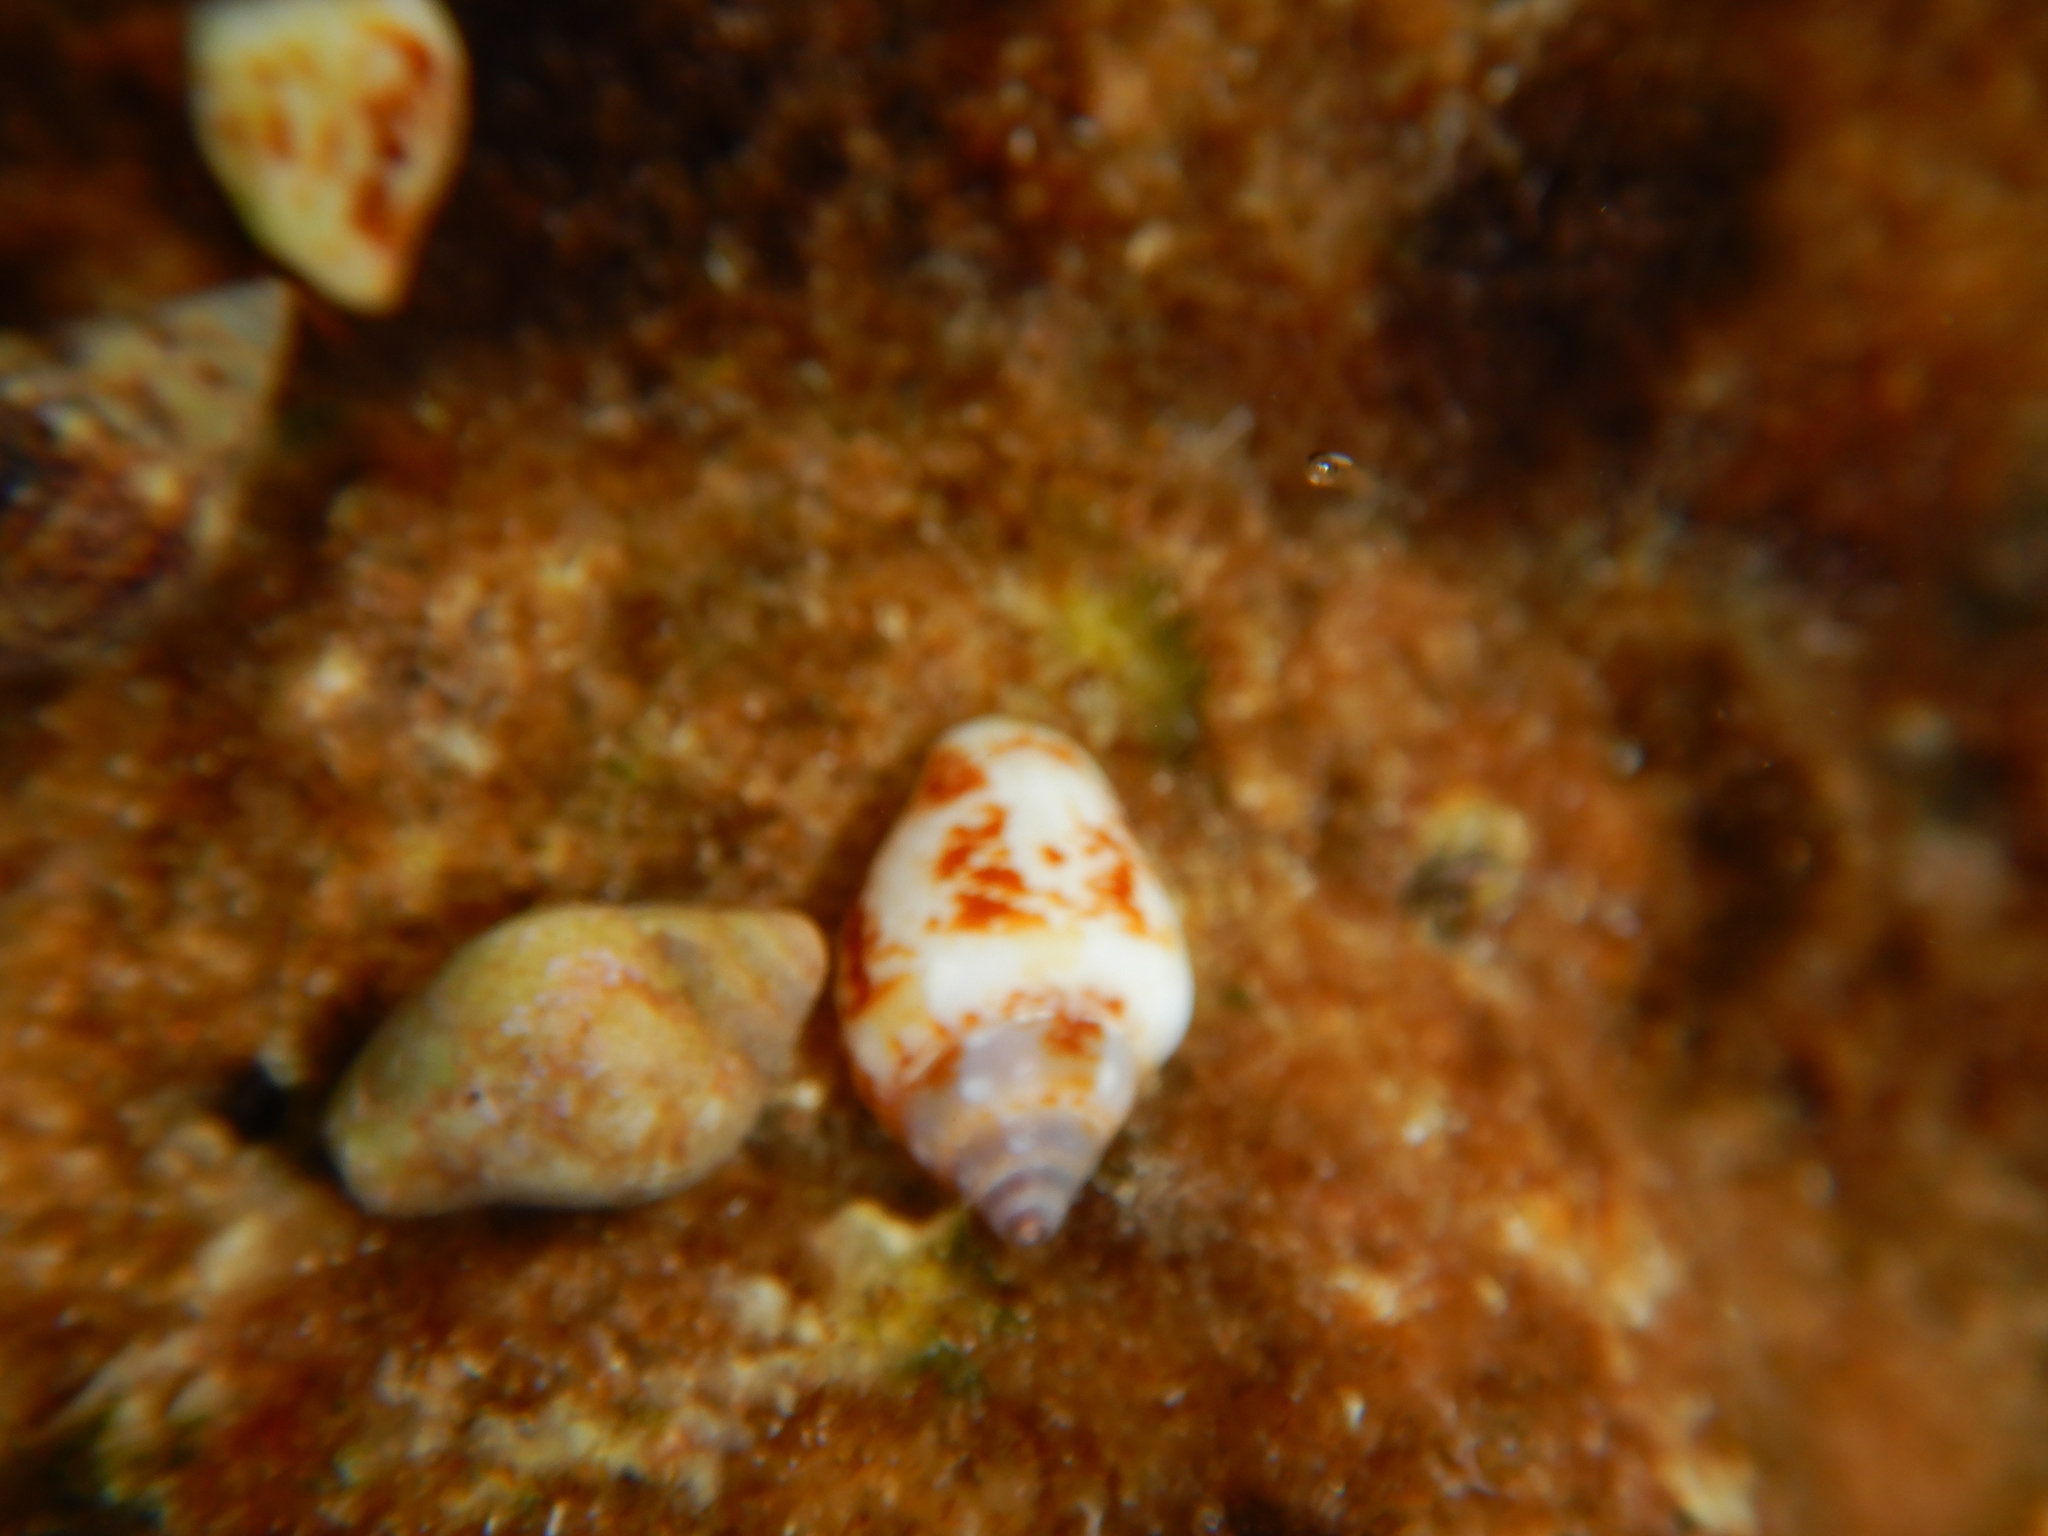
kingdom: Animalia
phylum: Mollusca
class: Gastropoda
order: Neogastropoda
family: Columbellidae
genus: Columbella
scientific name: Columbella rustica
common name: Rustic dove shell
